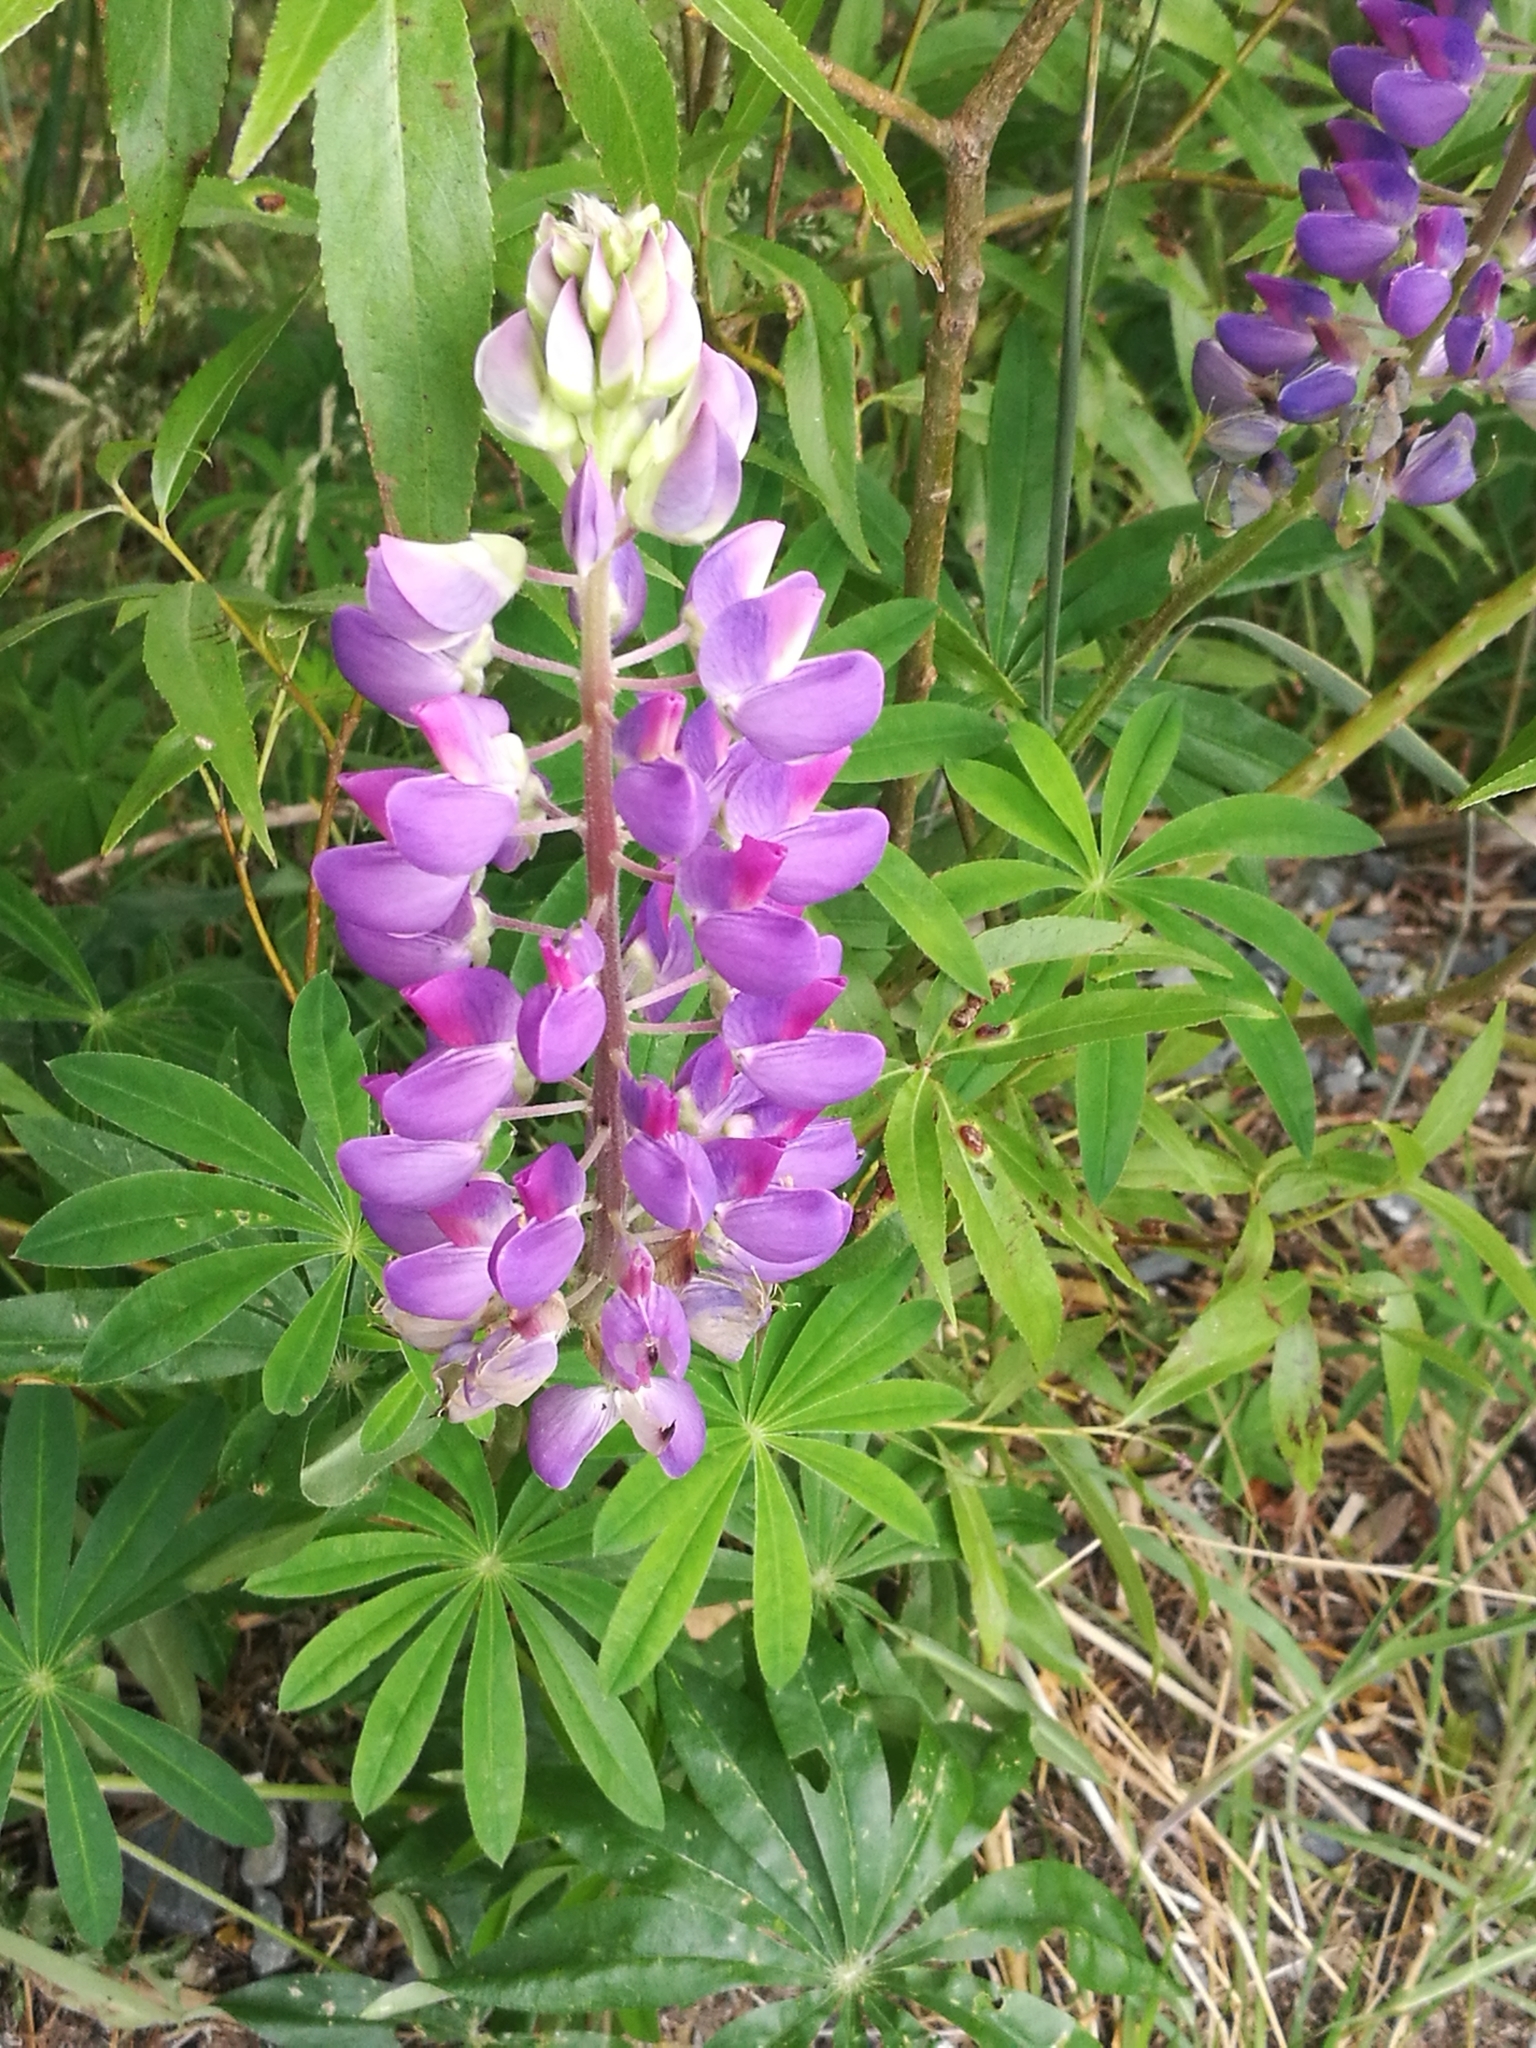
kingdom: Plantae
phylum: Tracheophyta
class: Magnoliopsida
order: Fabales
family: Fabaceae
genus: Lupinus
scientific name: Lupinus polyphyllus
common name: Garden lupin
